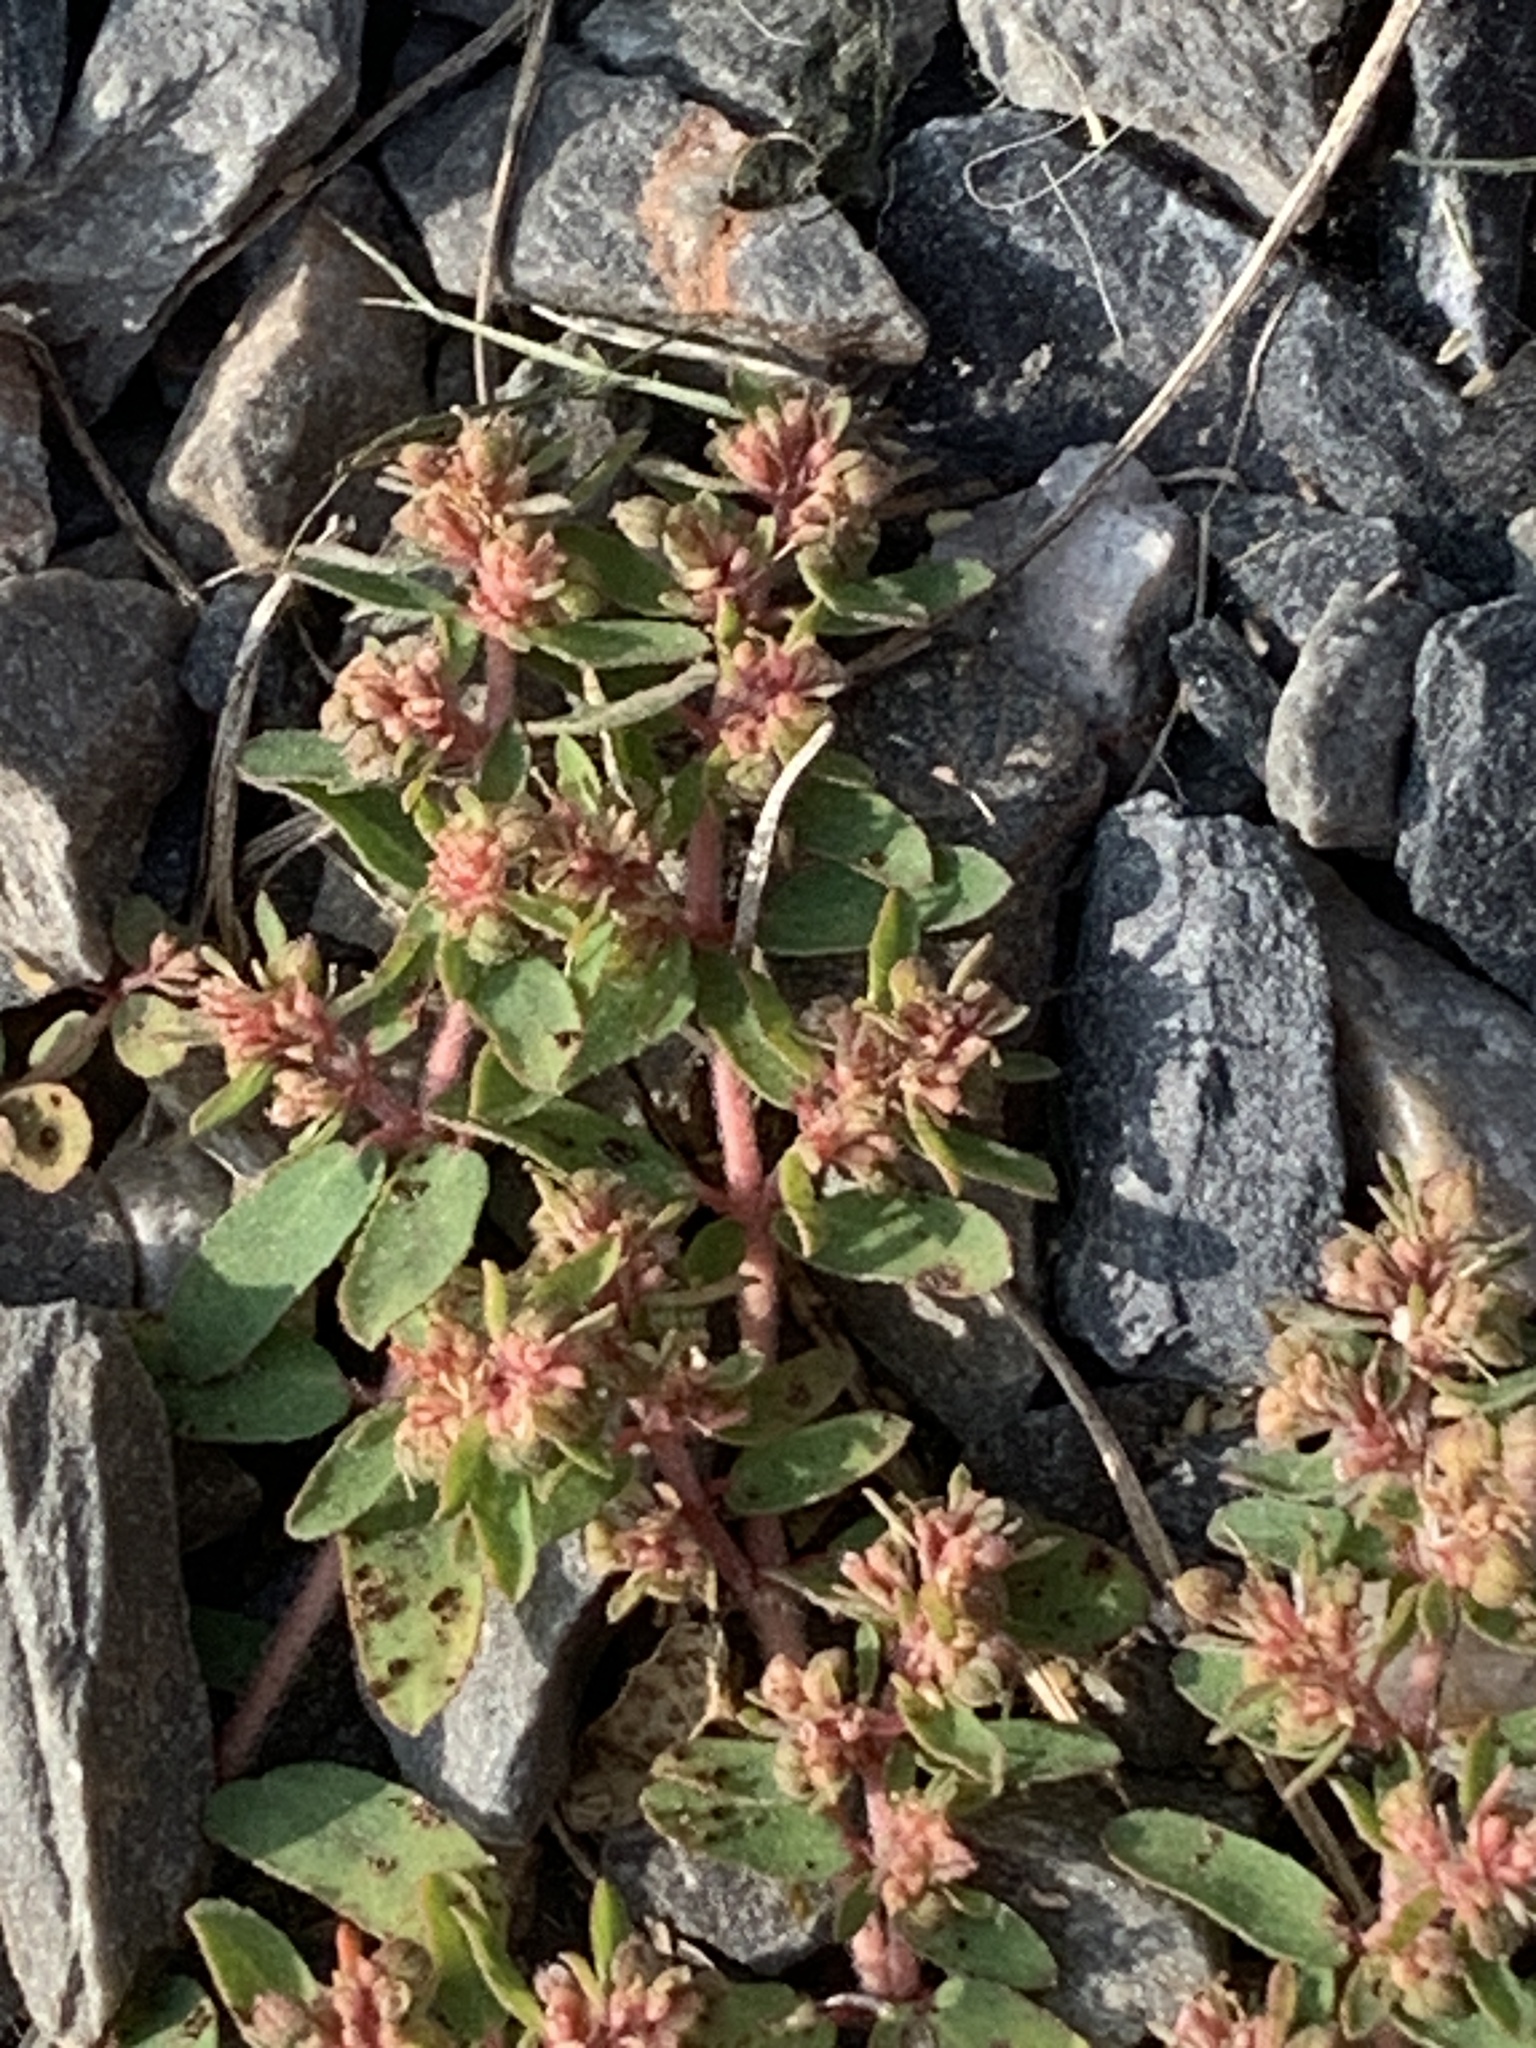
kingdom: Plantae
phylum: Tracheophyta
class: Magnoliopsida
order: Malpighiales
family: Euphorbiaceae
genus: Euphorbia
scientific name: Euphorbia maculata
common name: Spotted spurge
